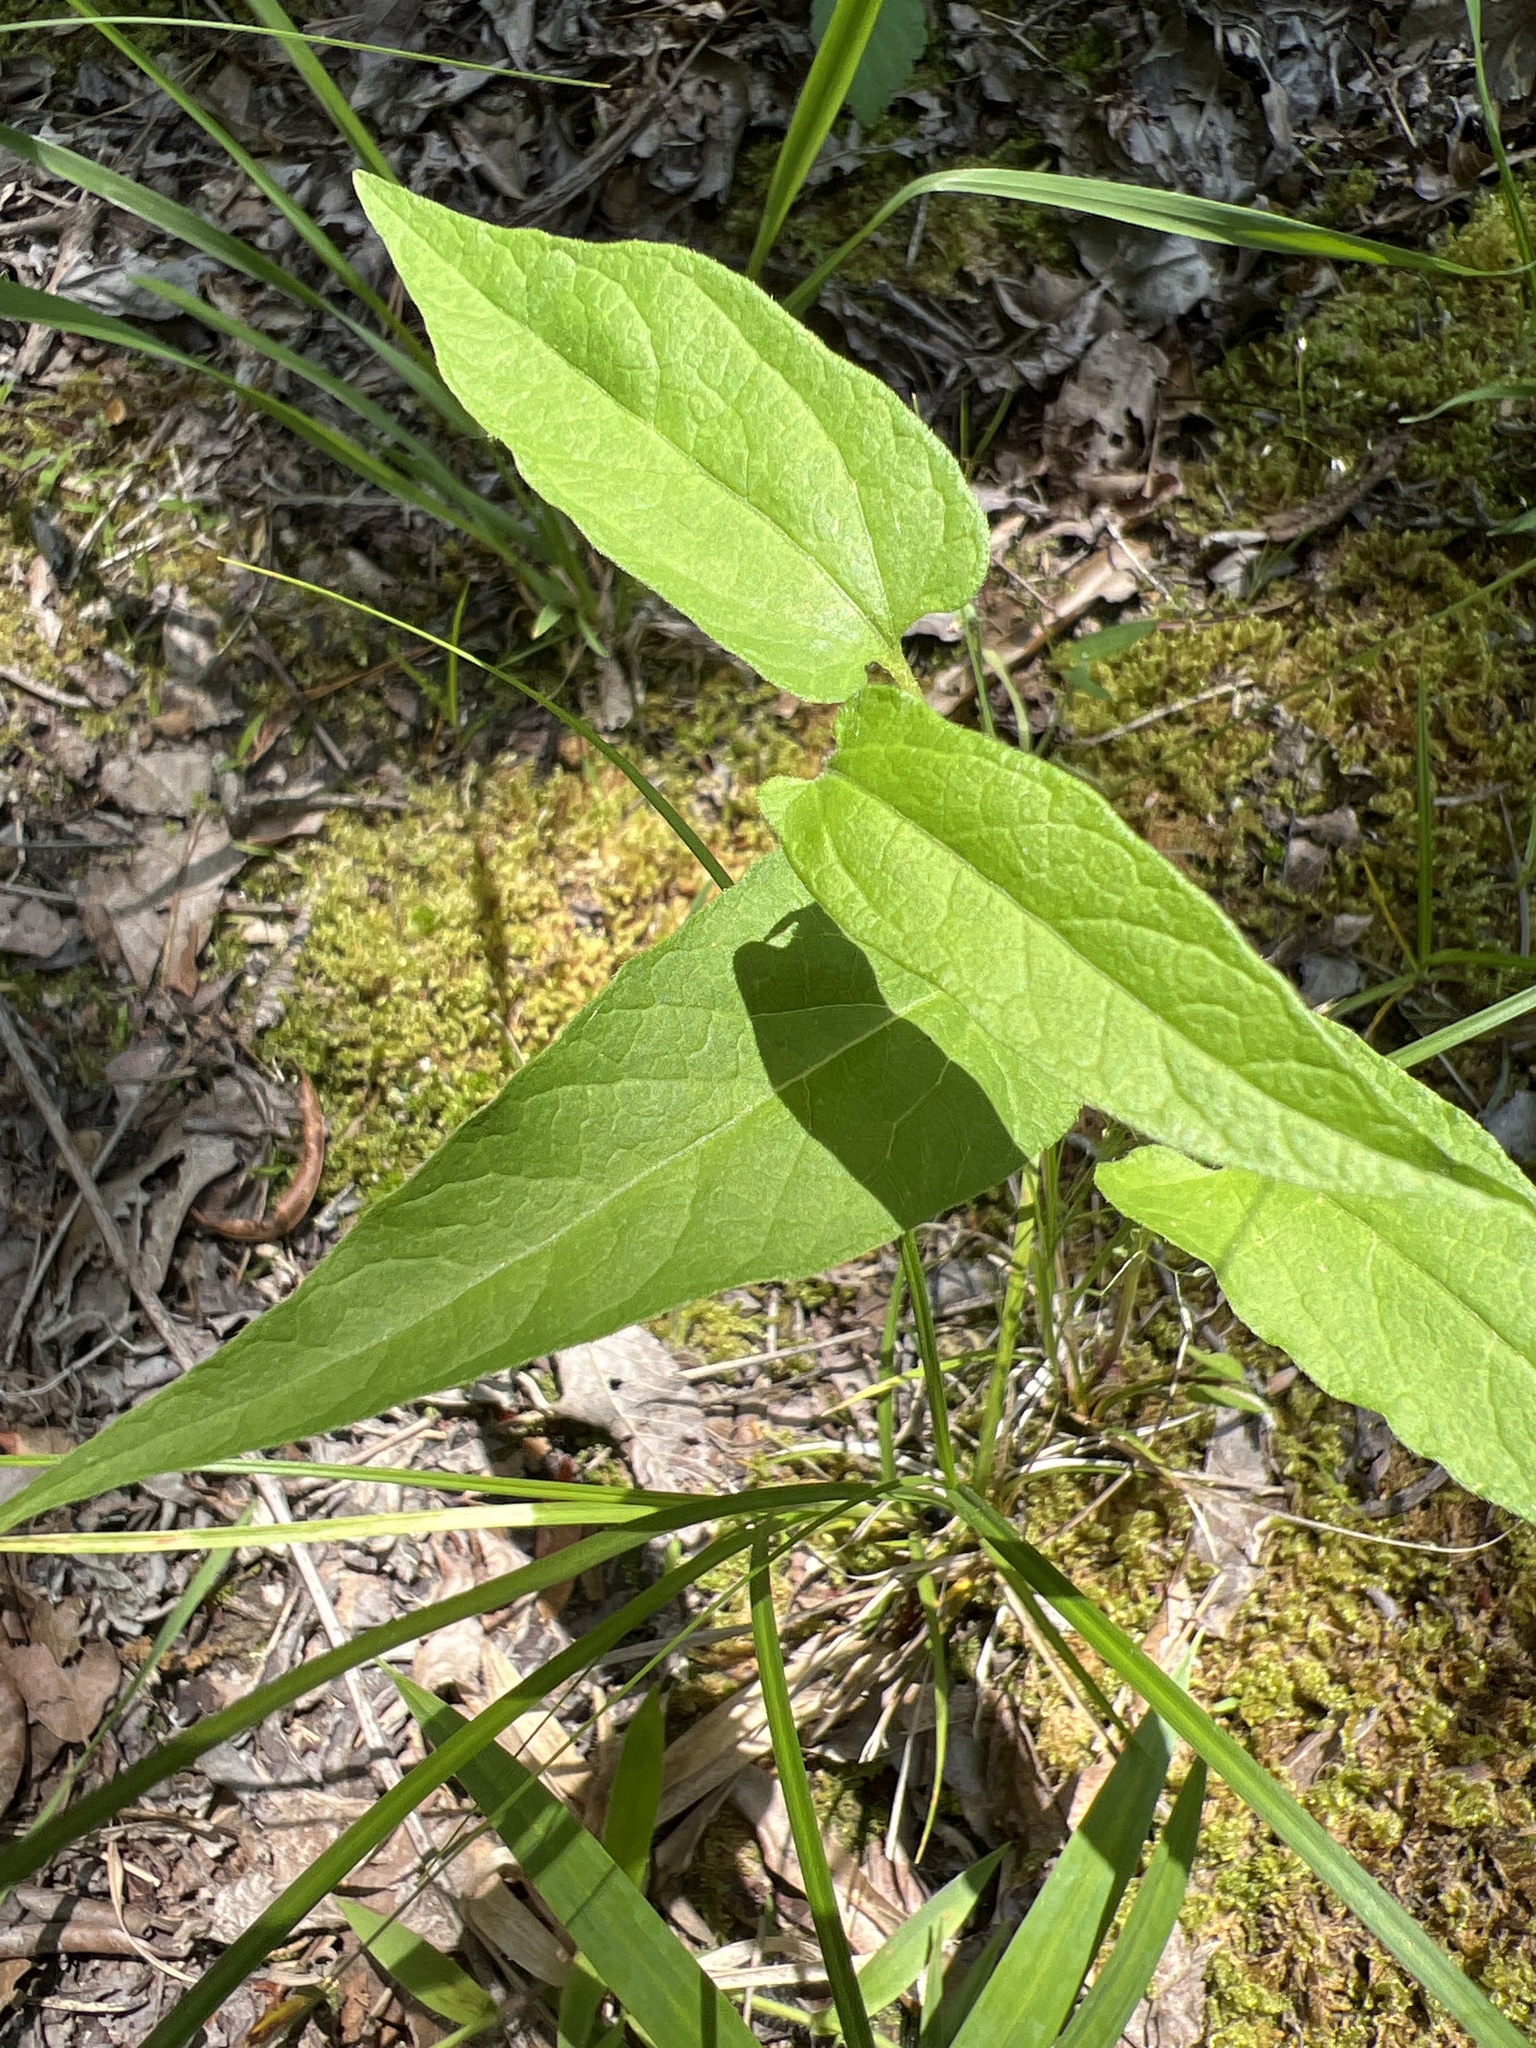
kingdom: Plantae
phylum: Tracheophyta
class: Magnoliopsida
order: Piperales
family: Aristolochiaceae
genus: Endodeca
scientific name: Endodeca serpentaria
